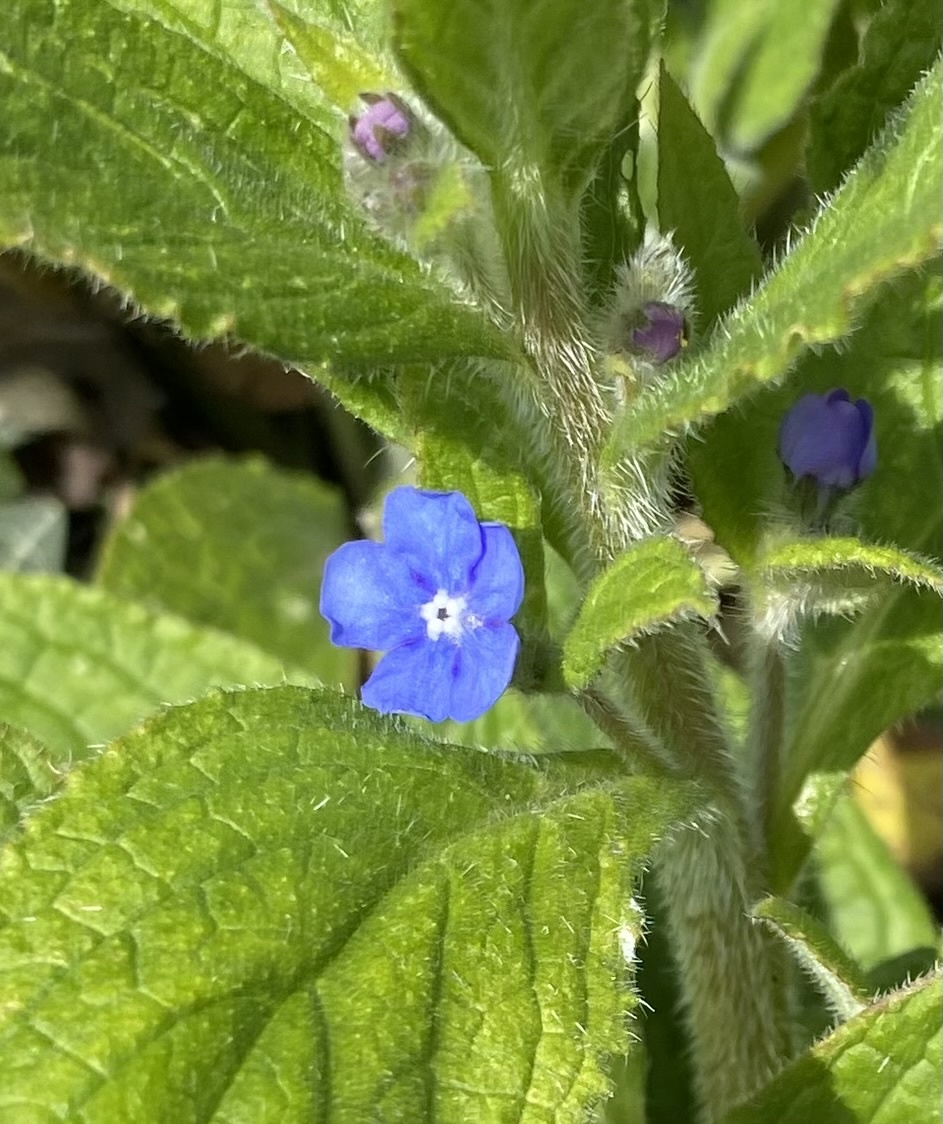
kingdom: Plantae
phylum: Tracheophyta
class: Magnoliopsida
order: Boraginales
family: Boraginaceae
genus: Pentaglottis
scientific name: Pentaglottis sempervirens
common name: Green alkanet
